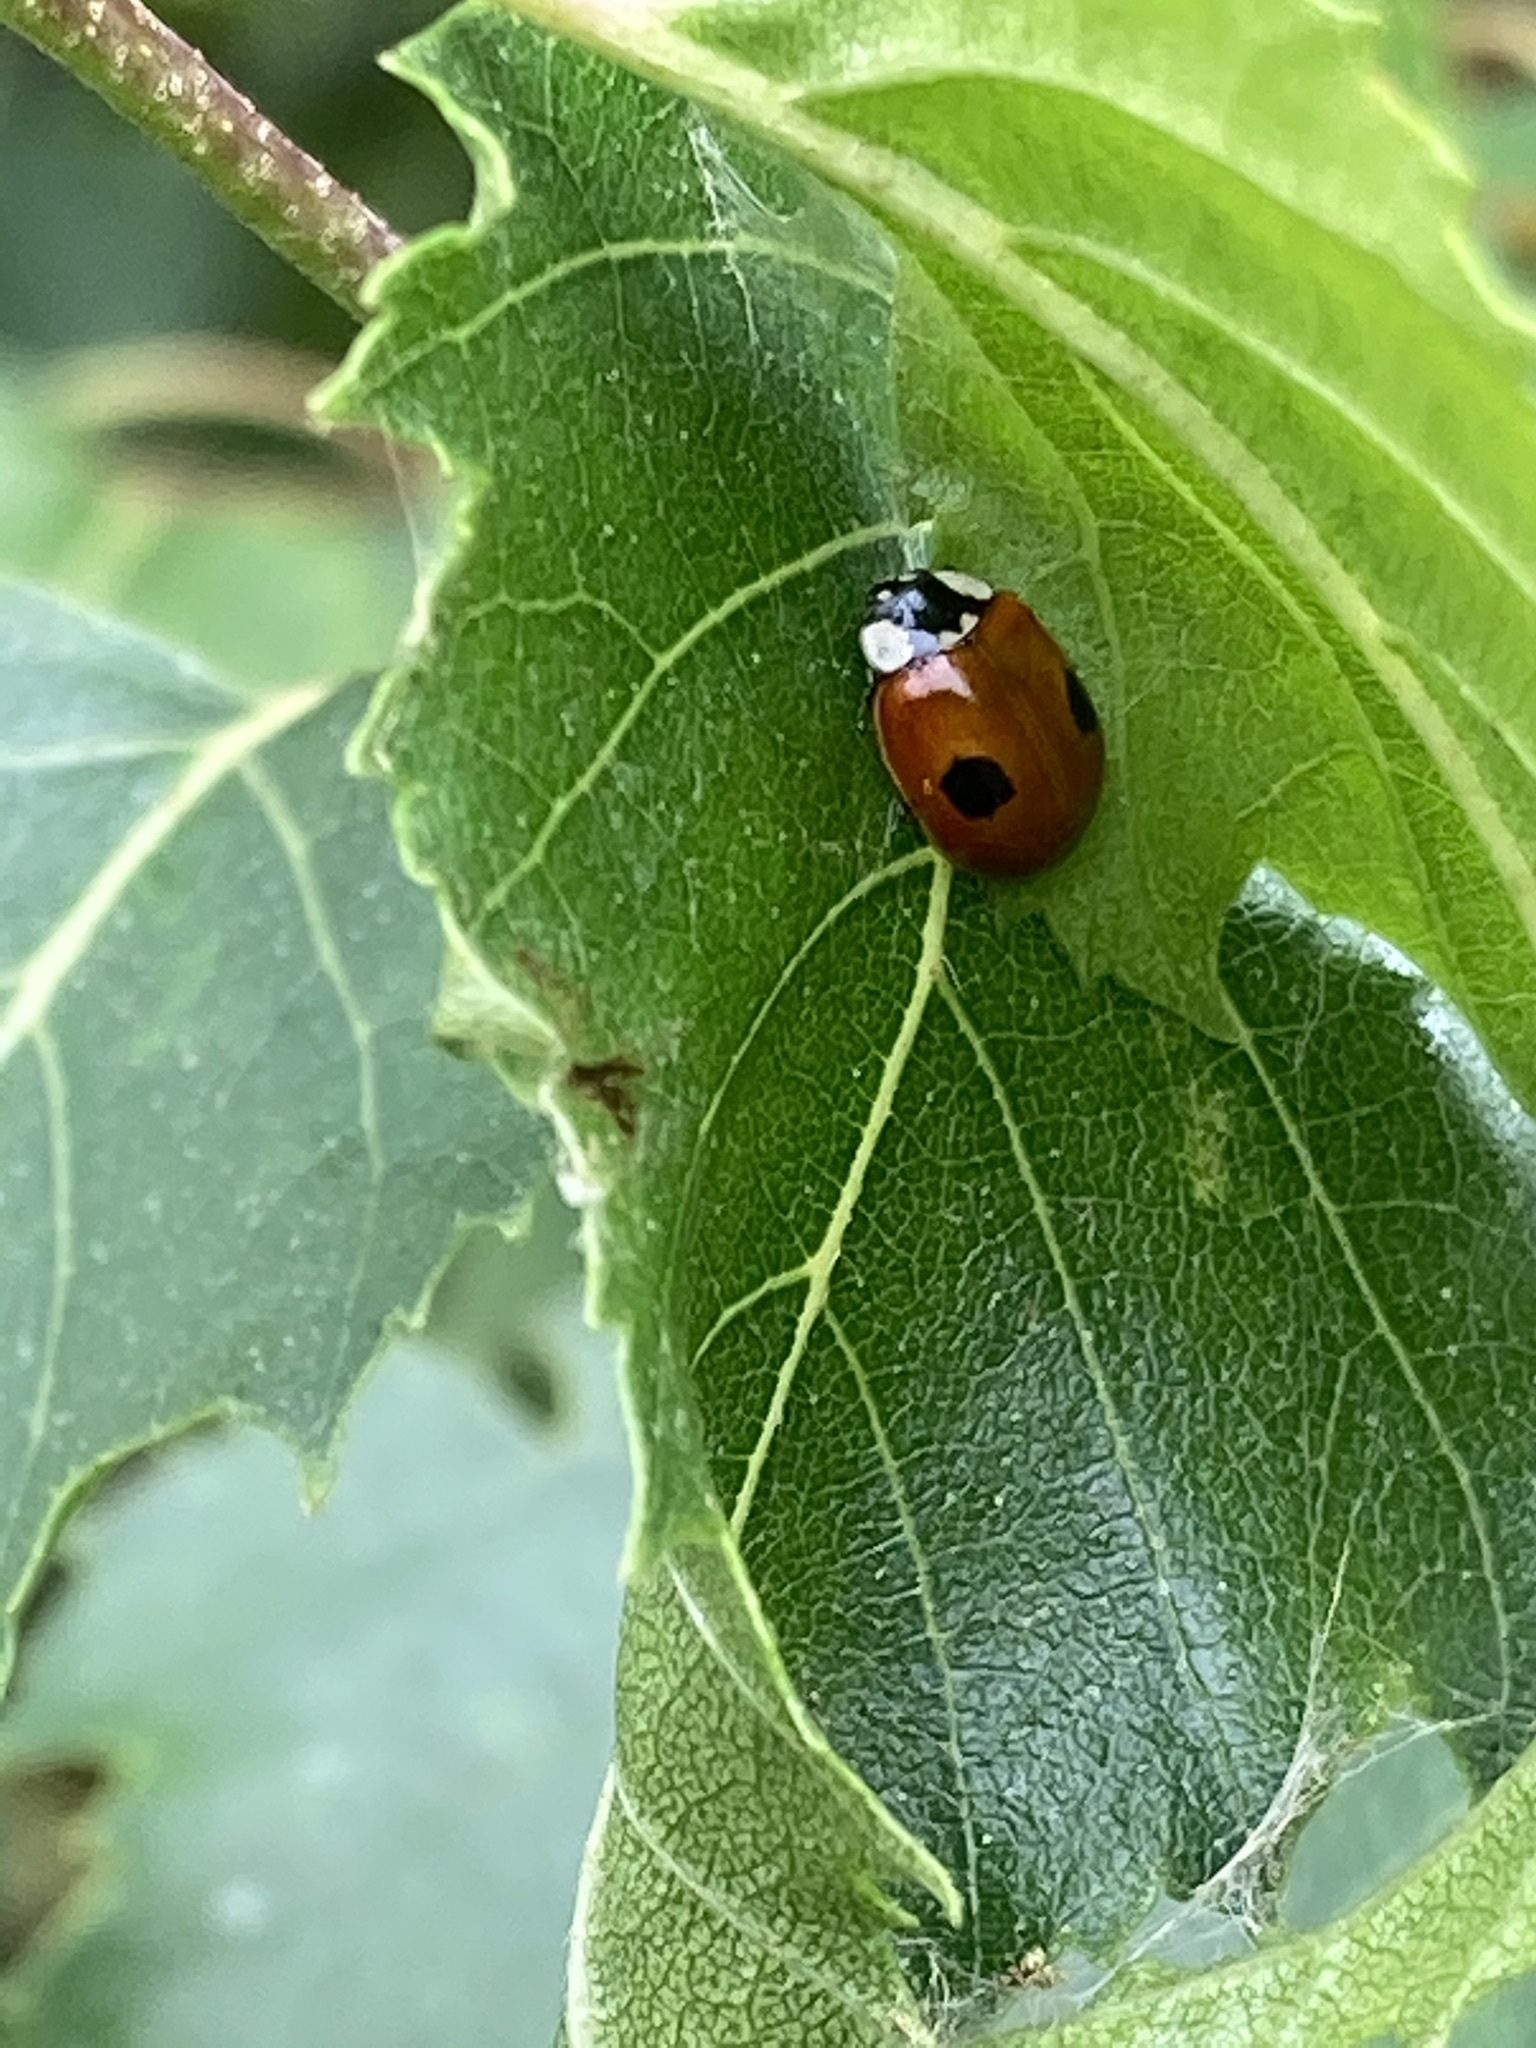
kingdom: Animalia
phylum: Arthropoda
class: Insecta
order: Coleoptera
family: Coccinellidae
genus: Adalia
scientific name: Adalia bipunctata
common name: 2-spot ladybird
